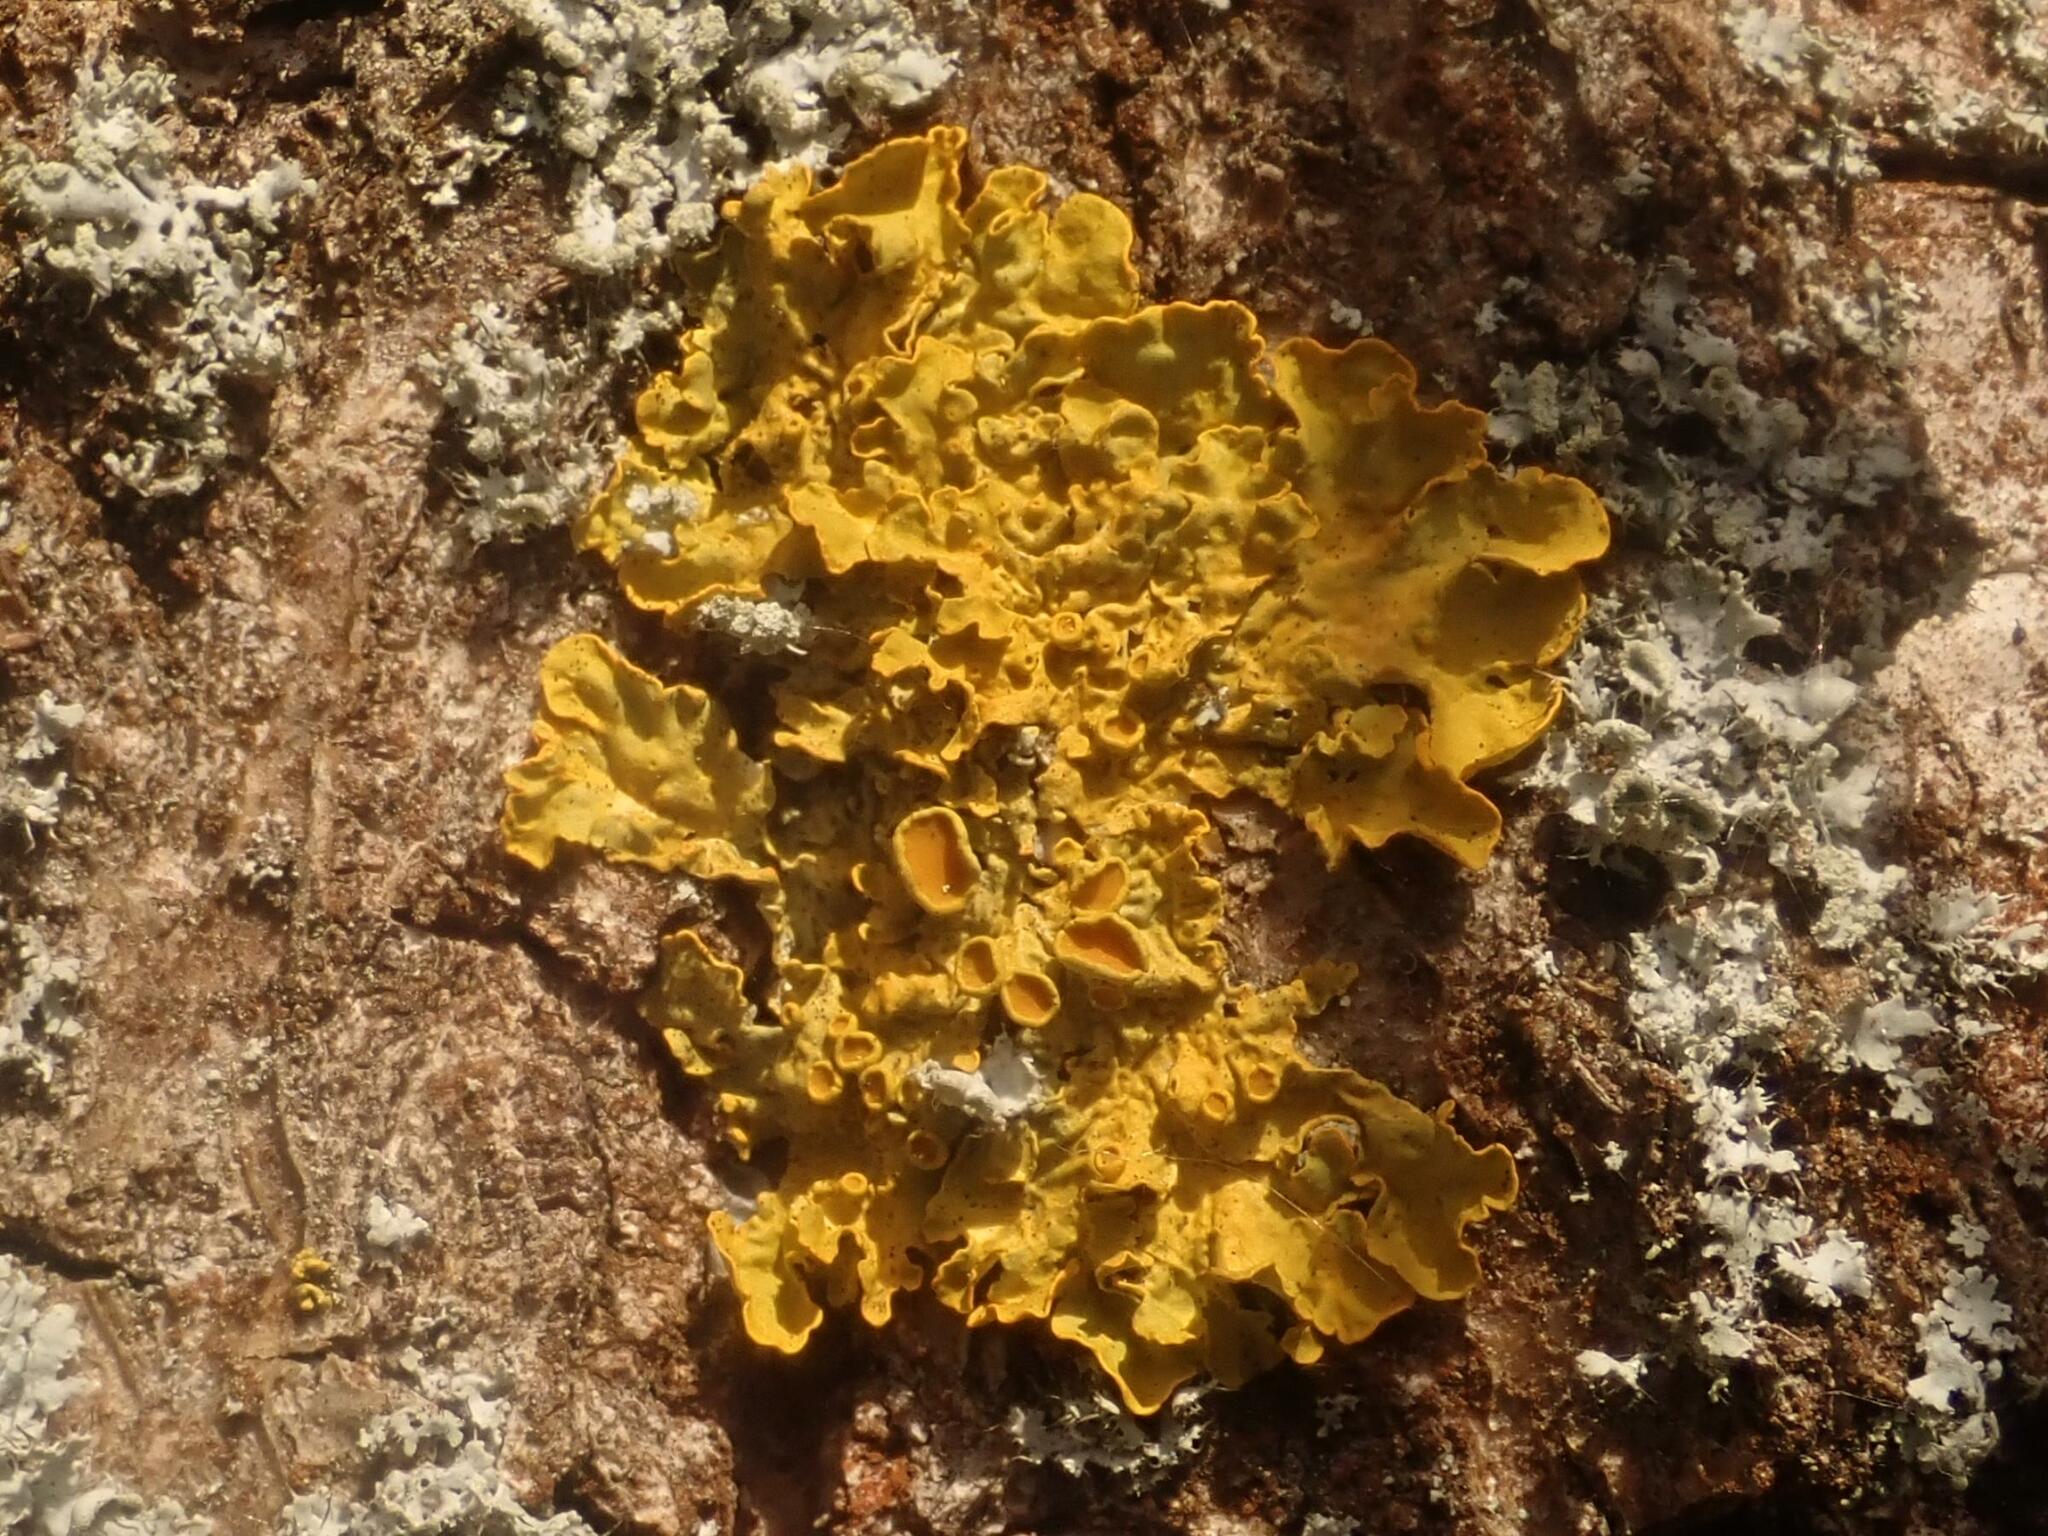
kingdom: Fungi
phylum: Ascomycota
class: Lecanoromycetes
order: Teloschistales
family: Teloschistaceae
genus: Xanthoria
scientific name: Xanthoria parietina
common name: Common orange lichen
